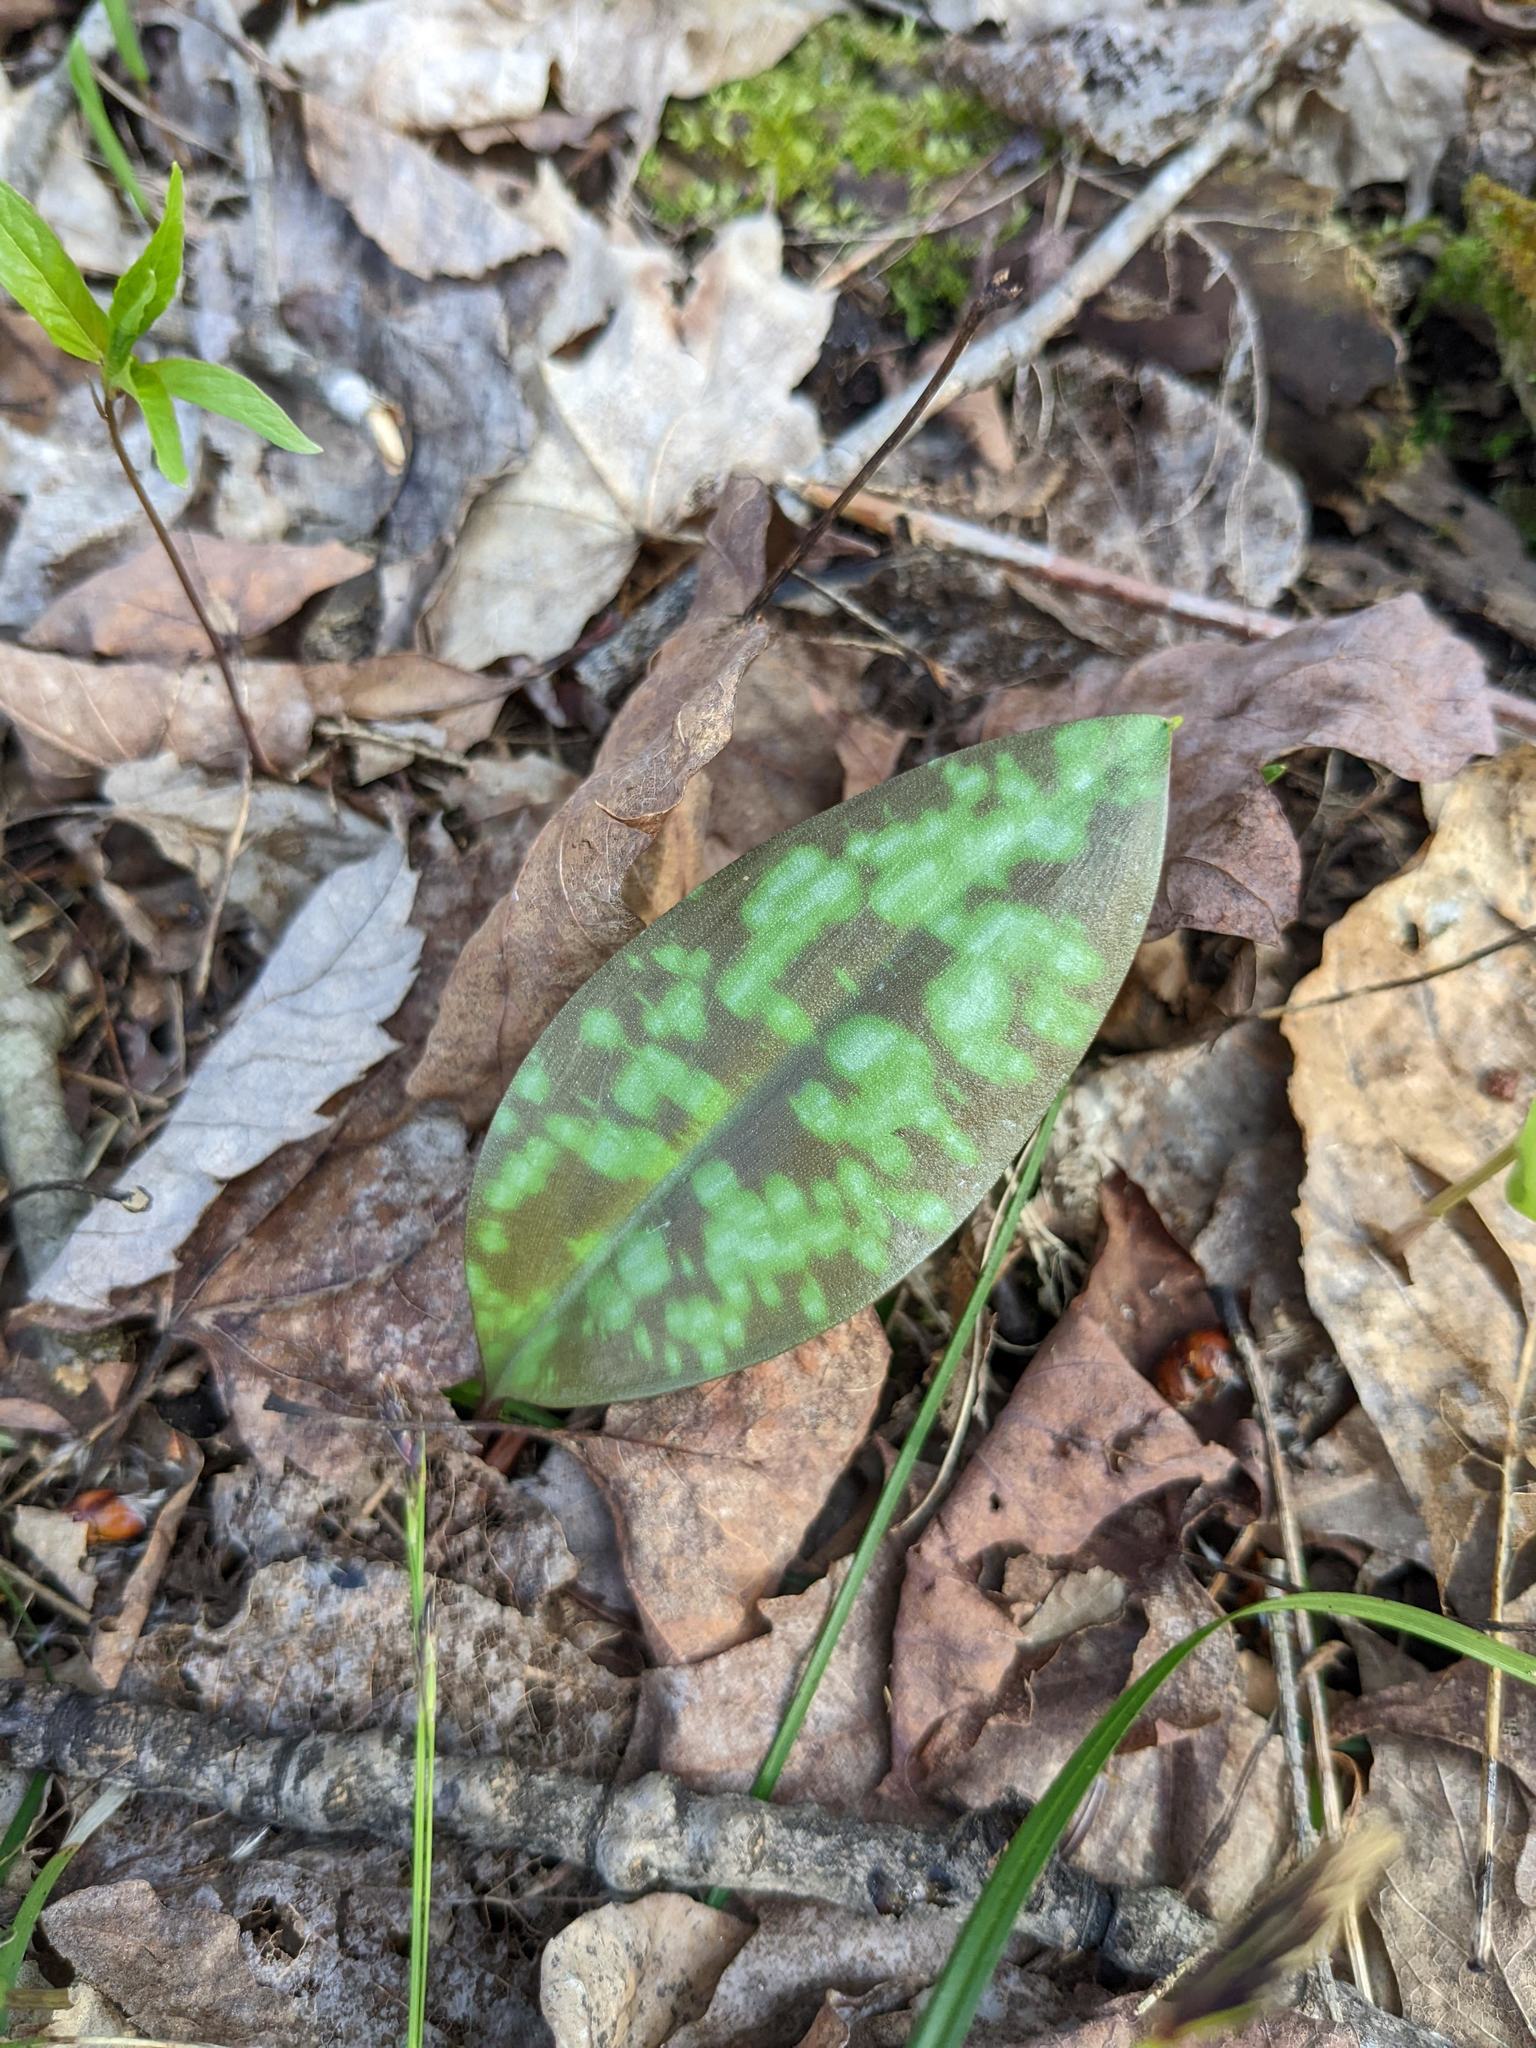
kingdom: Plantae
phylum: Tracheophyta
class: Liliopsida
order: Liliales
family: Liliaceae
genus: Erythronium
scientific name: Erythronium americanum
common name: Yellow adder's-tongue
